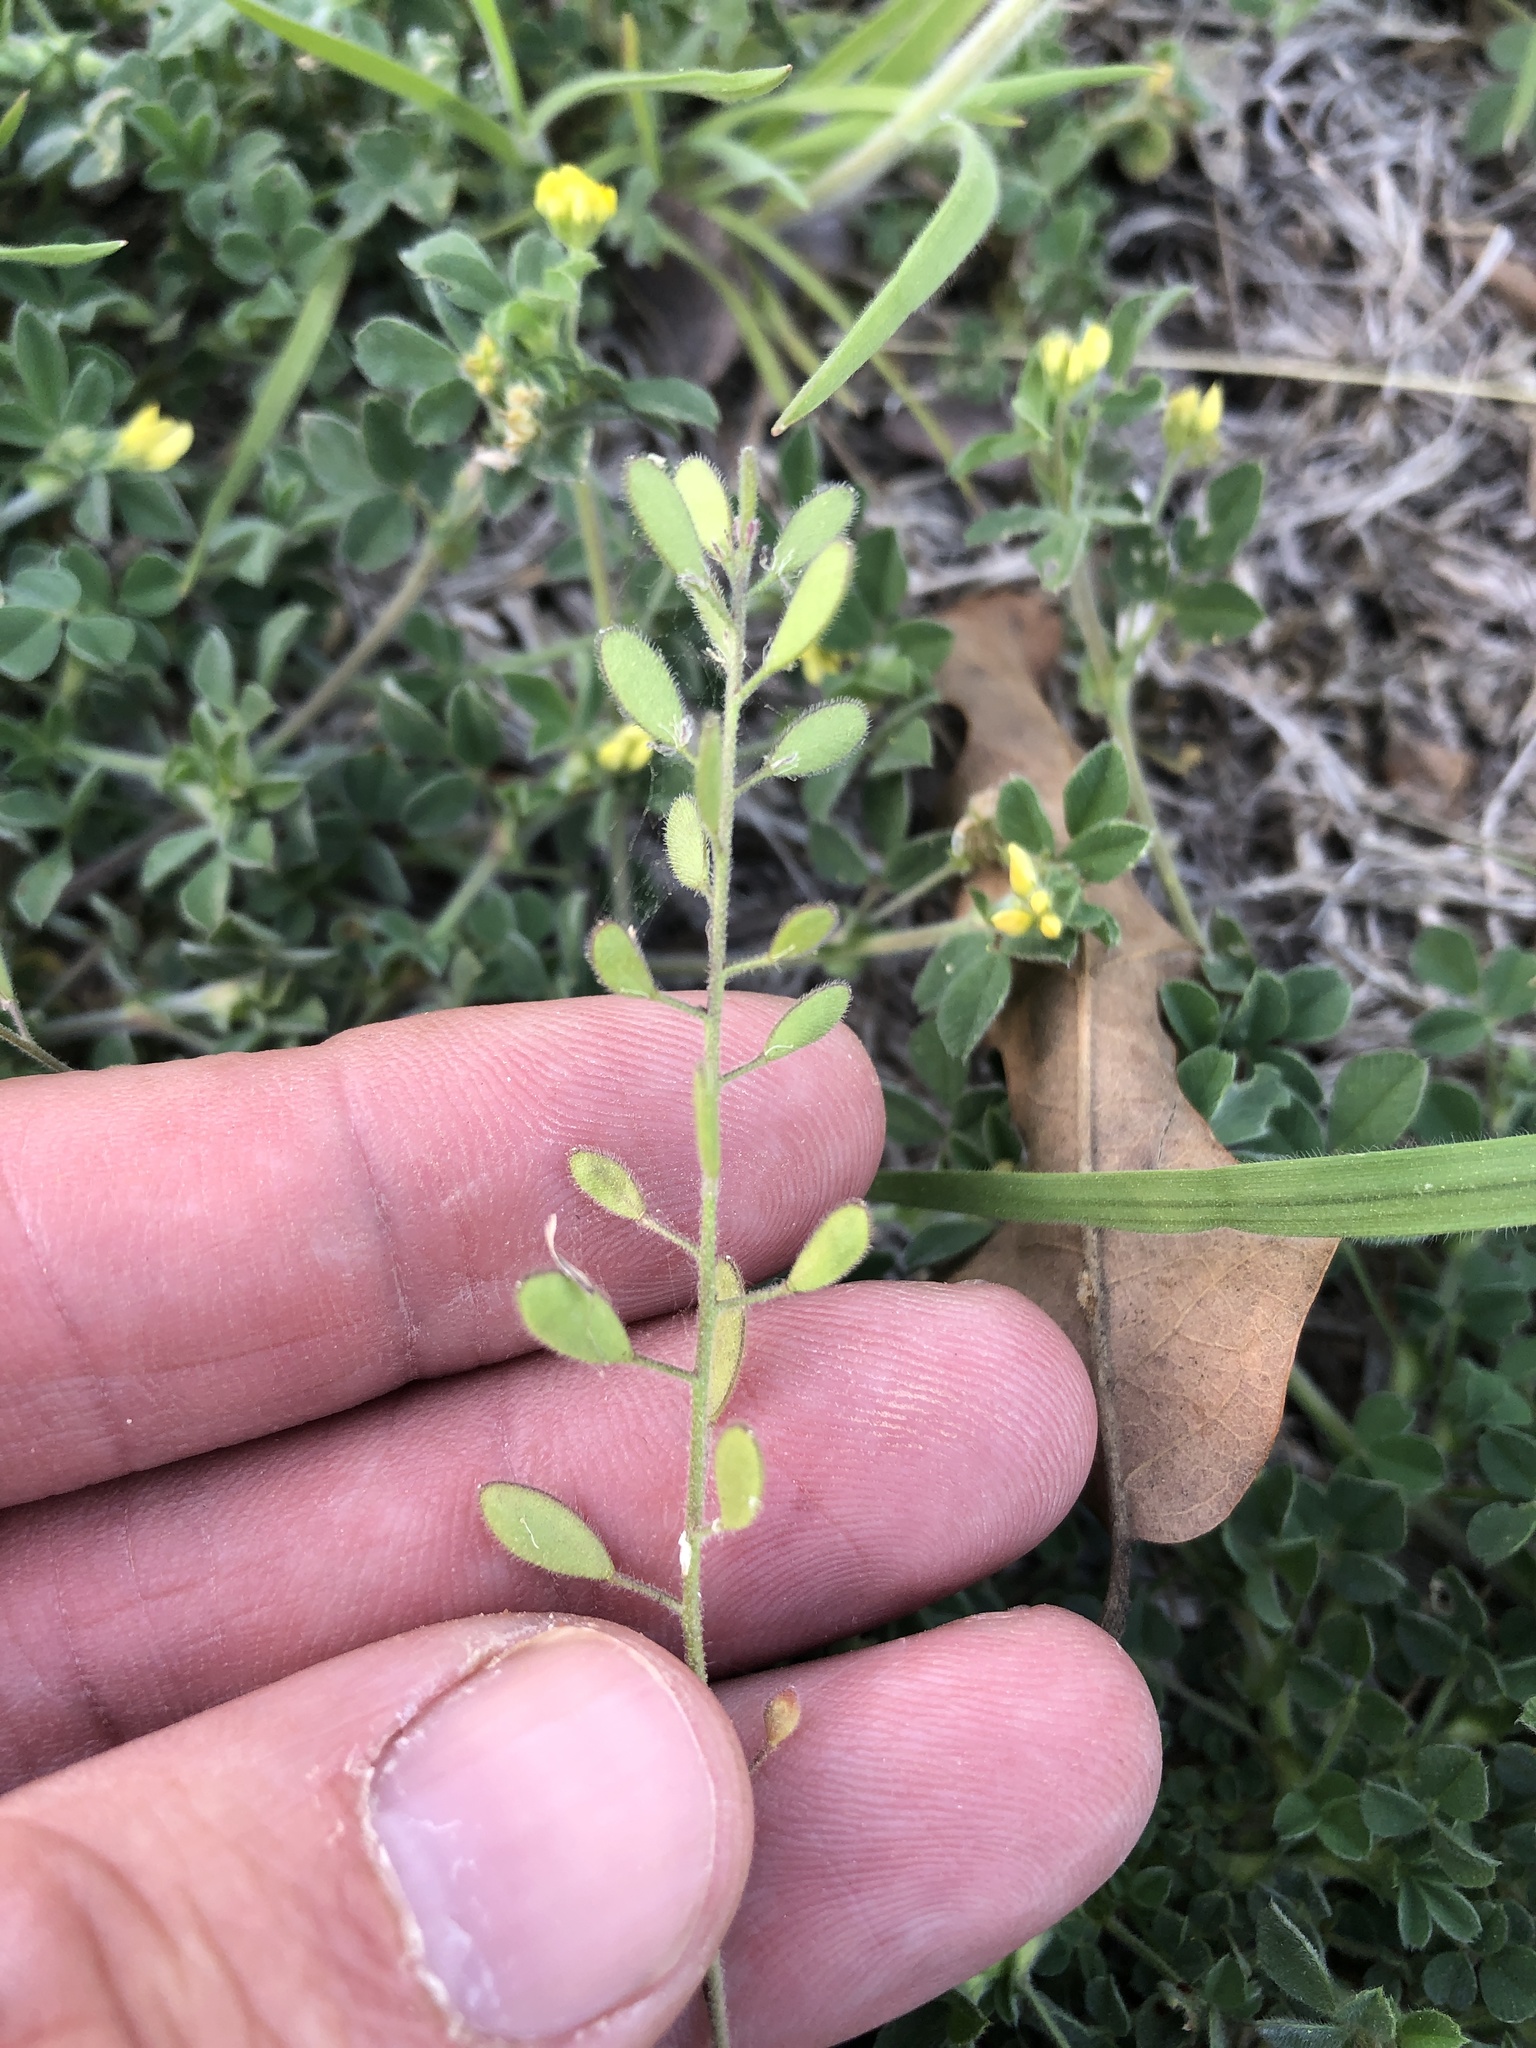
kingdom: Plantae
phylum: Tracheophyta
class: Magnoliopsida
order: Brassicales
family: Brassicaceae
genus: Tomostima
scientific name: Tomostima platycarpa
